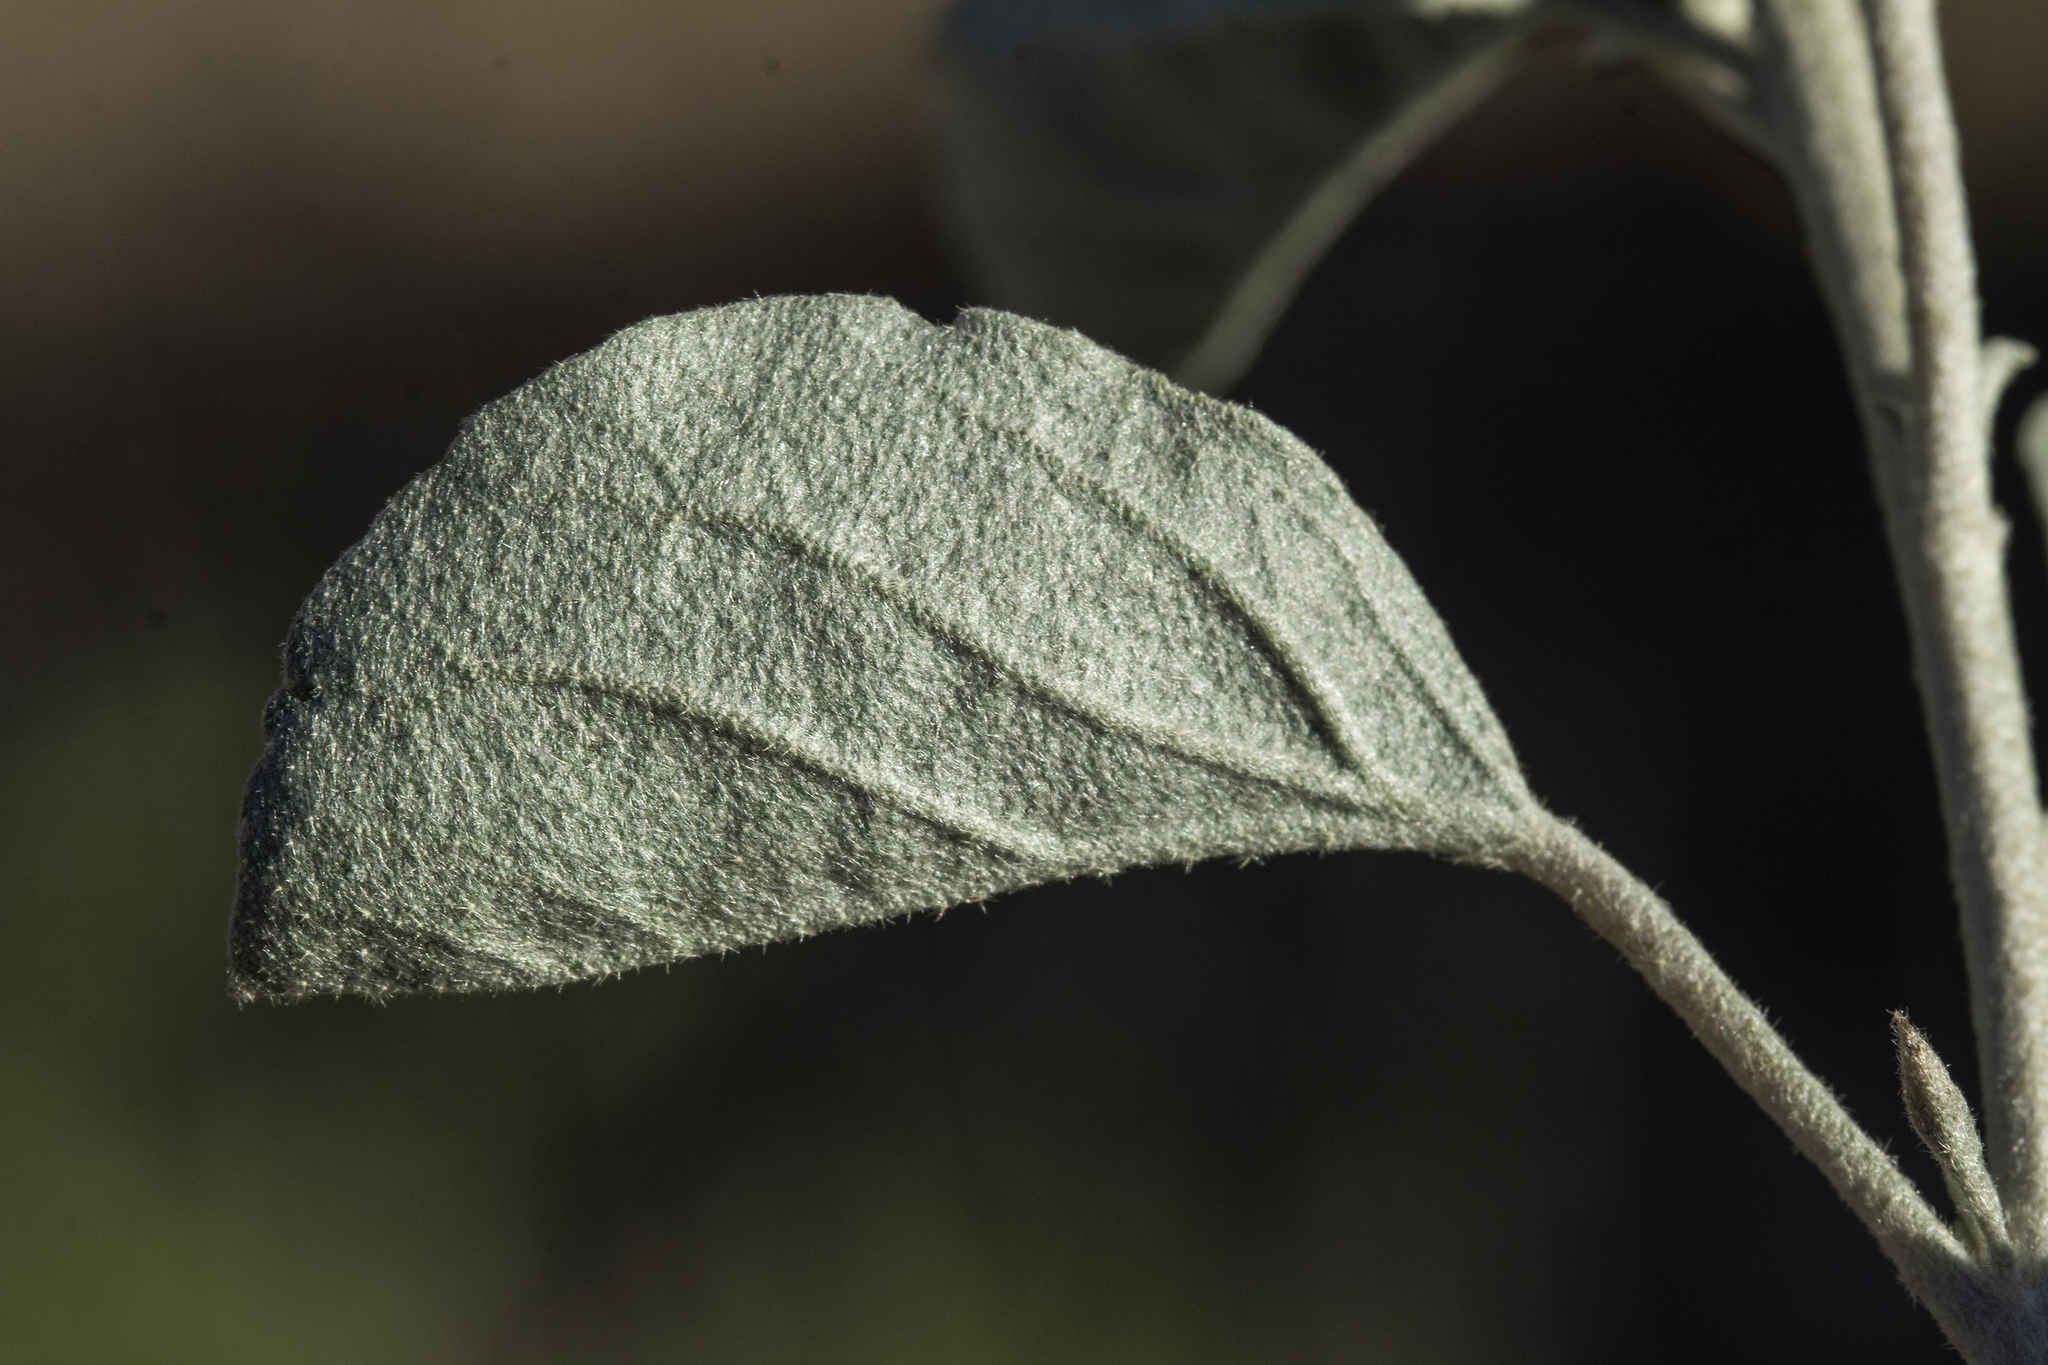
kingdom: Plantae
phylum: Tracheophyta
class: Magnoliopsida
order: Malpighiales
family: Euphorbiaceae
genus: Croton
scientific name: Croton pottsii
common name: Leatherweed
